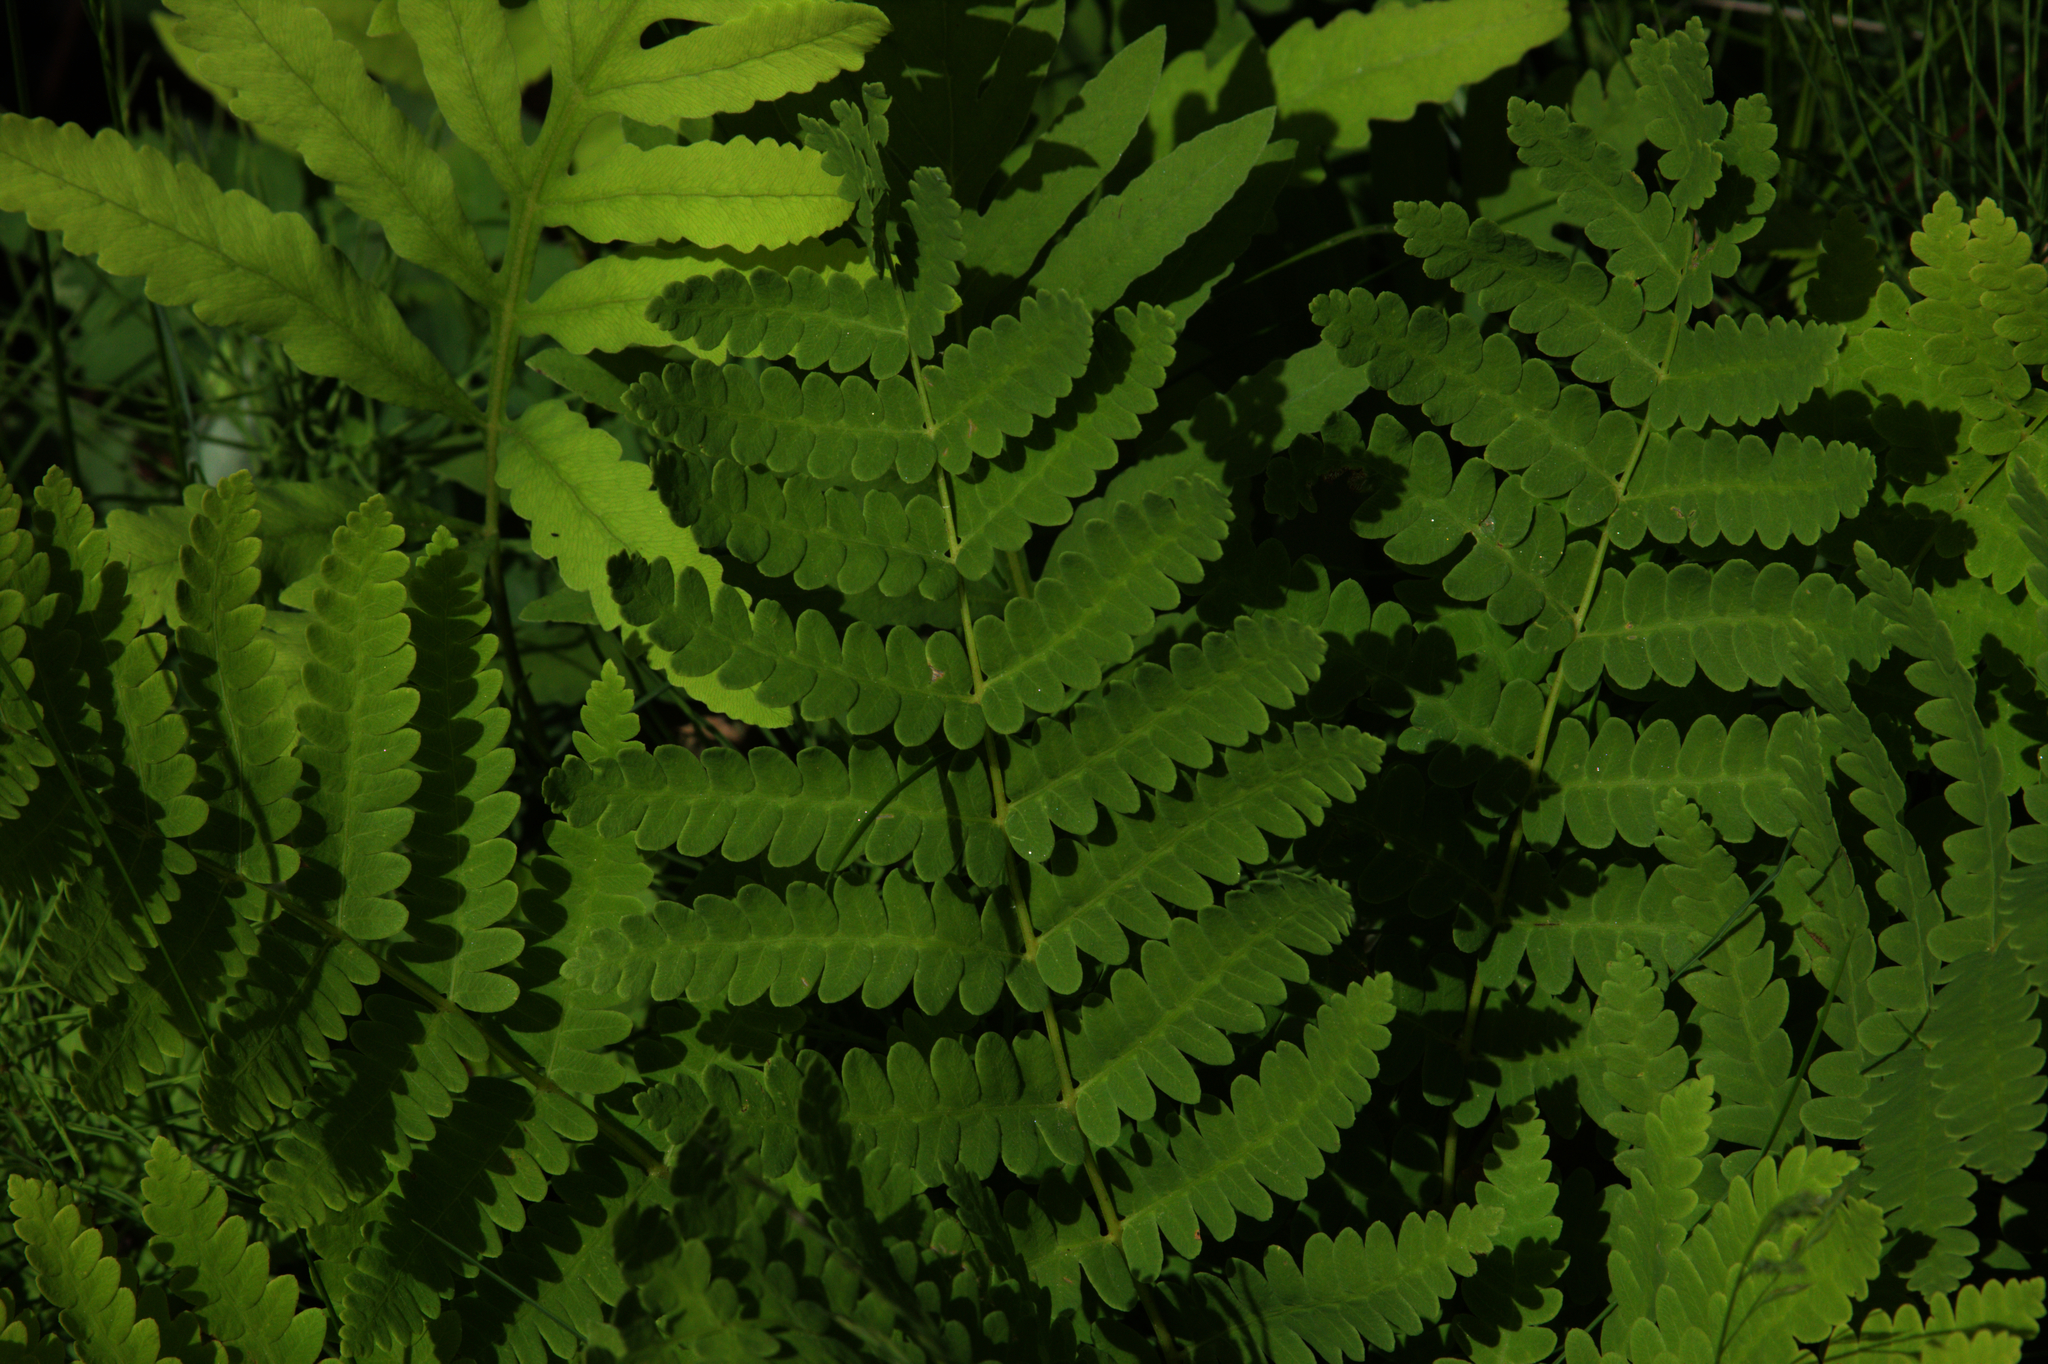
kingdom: Plantae
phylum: Tracheophyta
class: Polypodiopsida
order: Polypodiales
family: Onocleaceae
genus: Onoclea
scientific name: Onoclea sensibilis
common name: Sensitive fern
